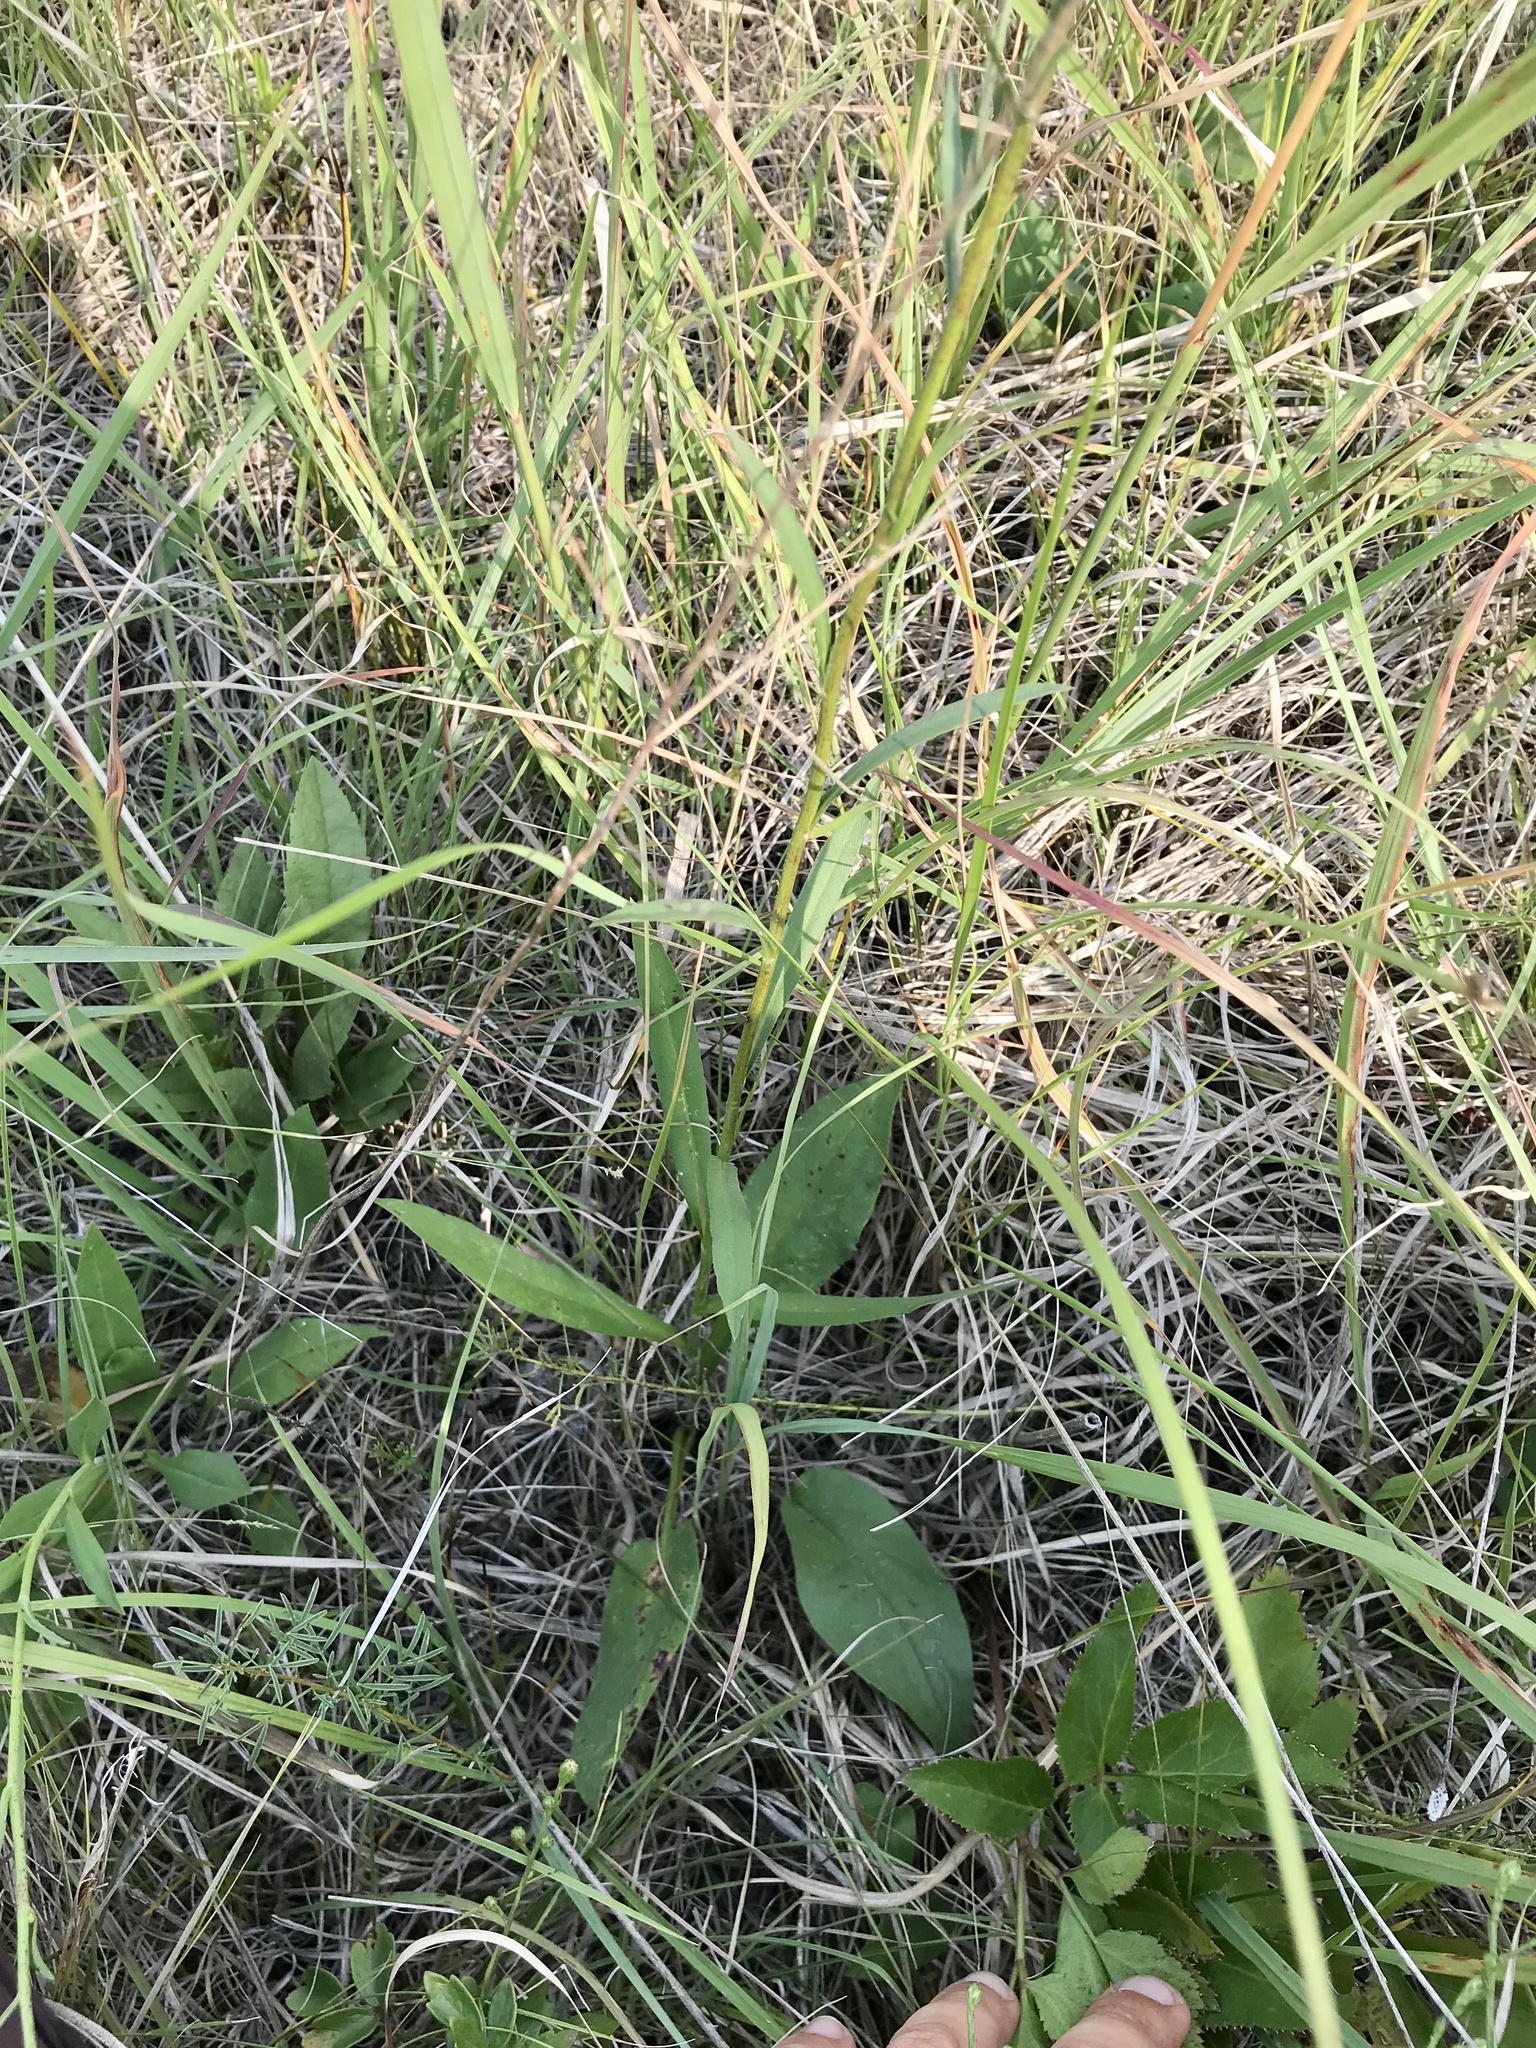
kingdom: Plantae
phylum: Tracheophyta
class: Magnoliopsida
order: Asterales
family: Asteraceae
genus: Symphyotrichum
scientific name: Symphyotrichum oolentangiense
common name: Azure aster
